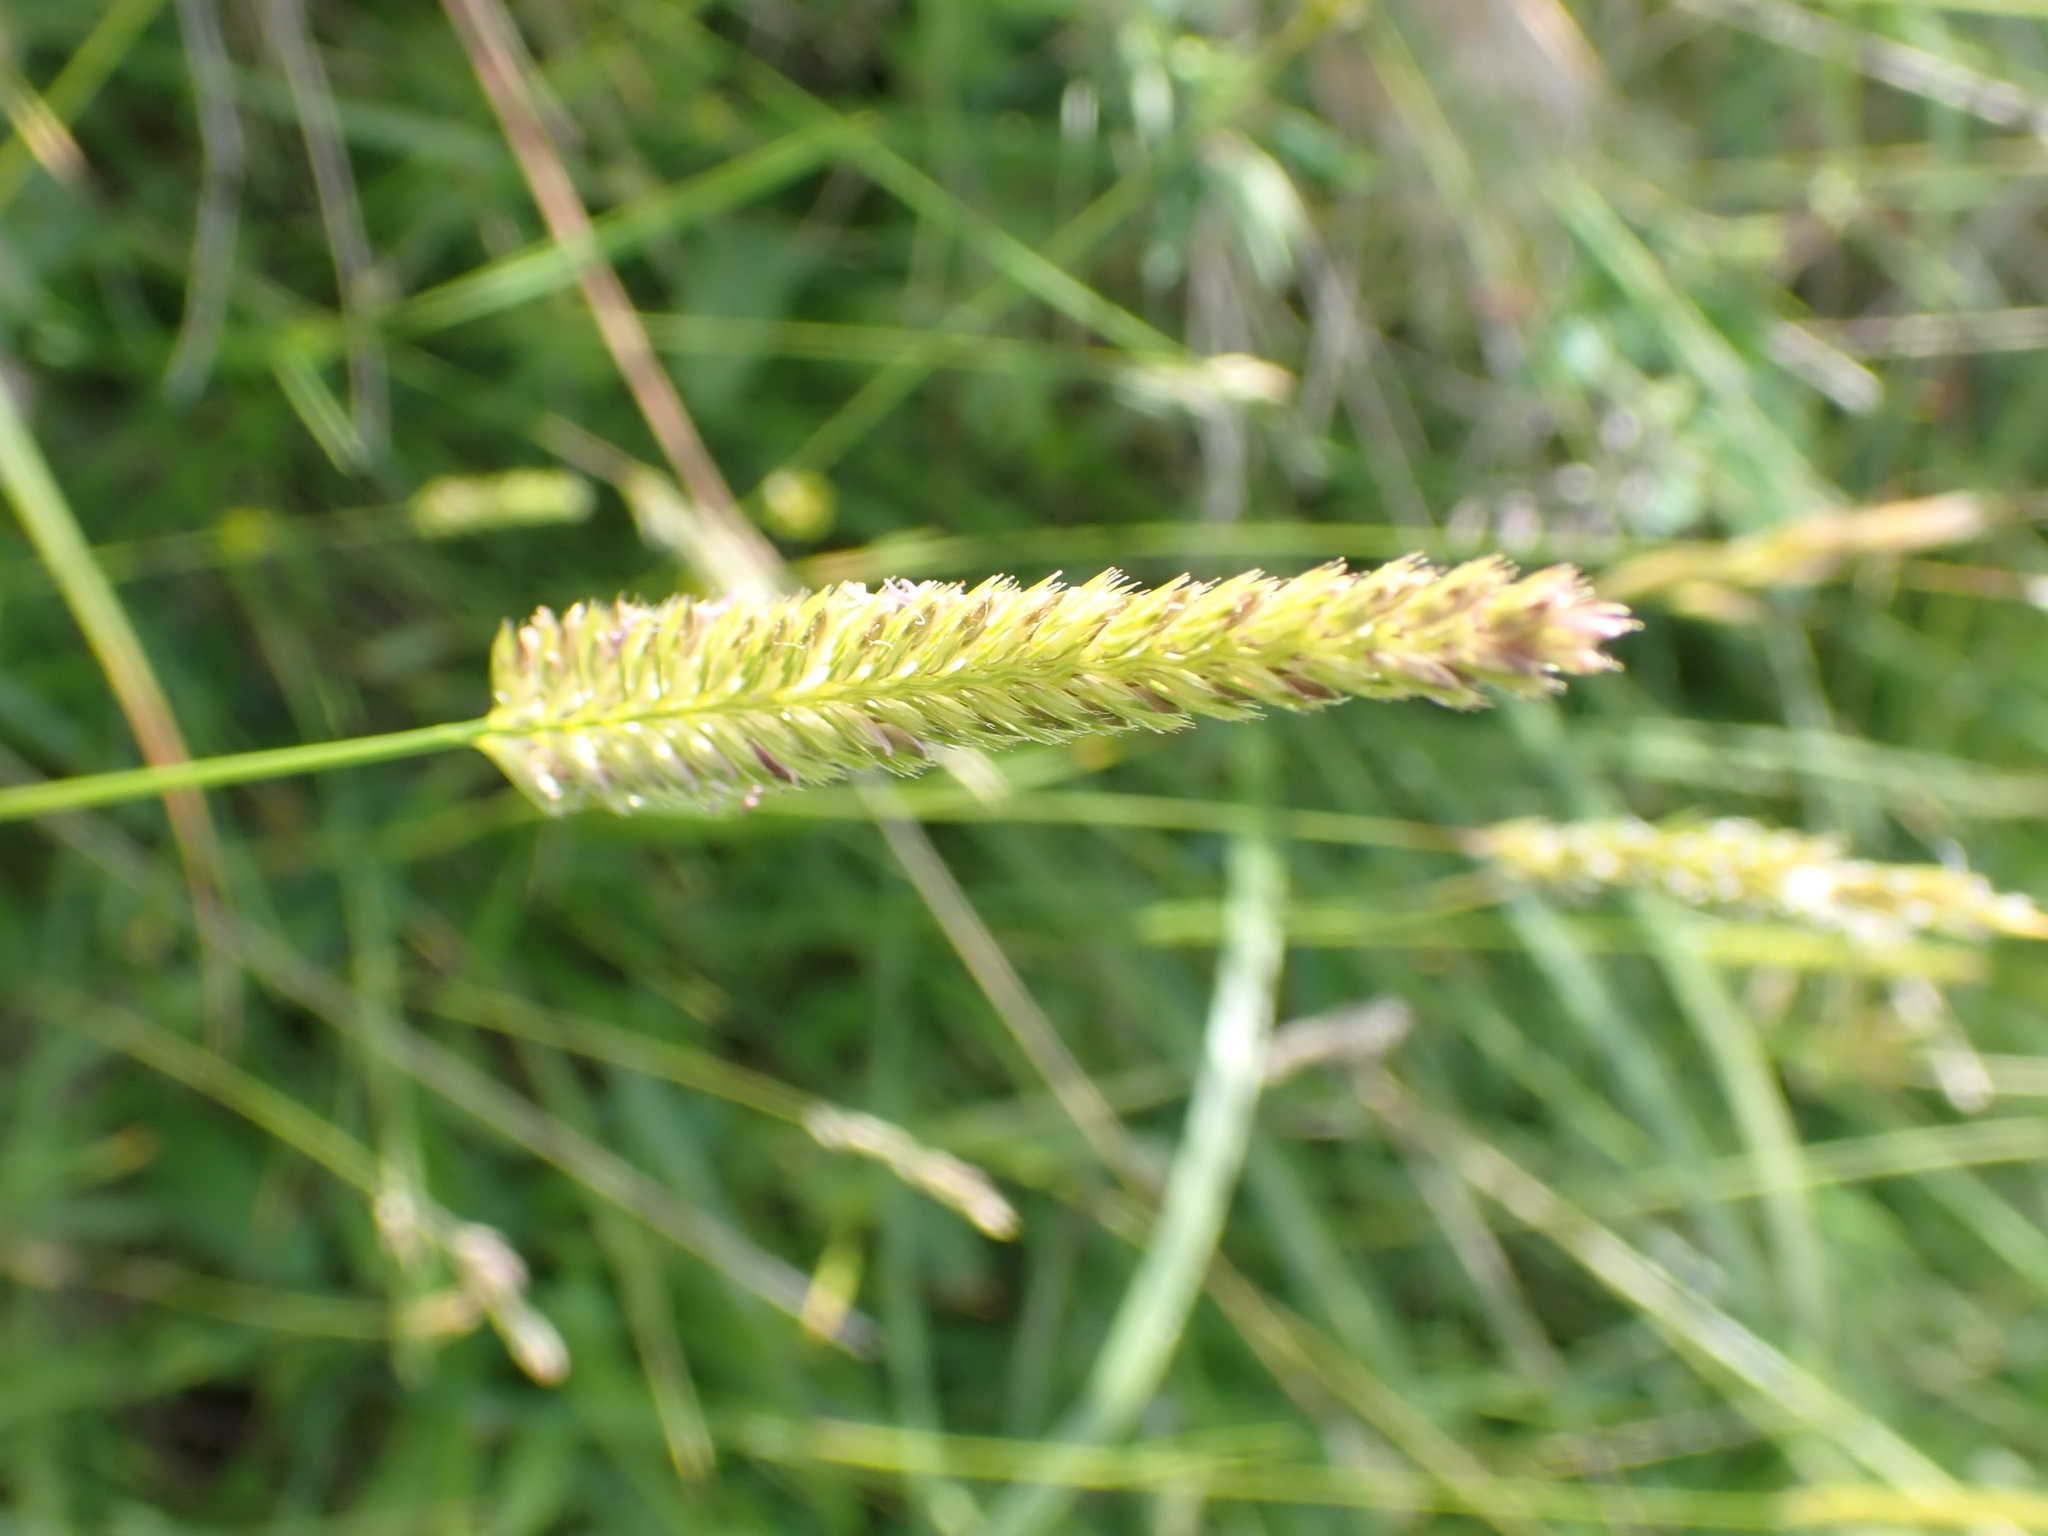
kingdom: Plantae
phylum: Tracheophyta
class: Liliopsida
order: Poales
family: Poaceae
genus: Cynosurus
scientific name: Cynosurus cristatus
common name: Crested dog's-tail
